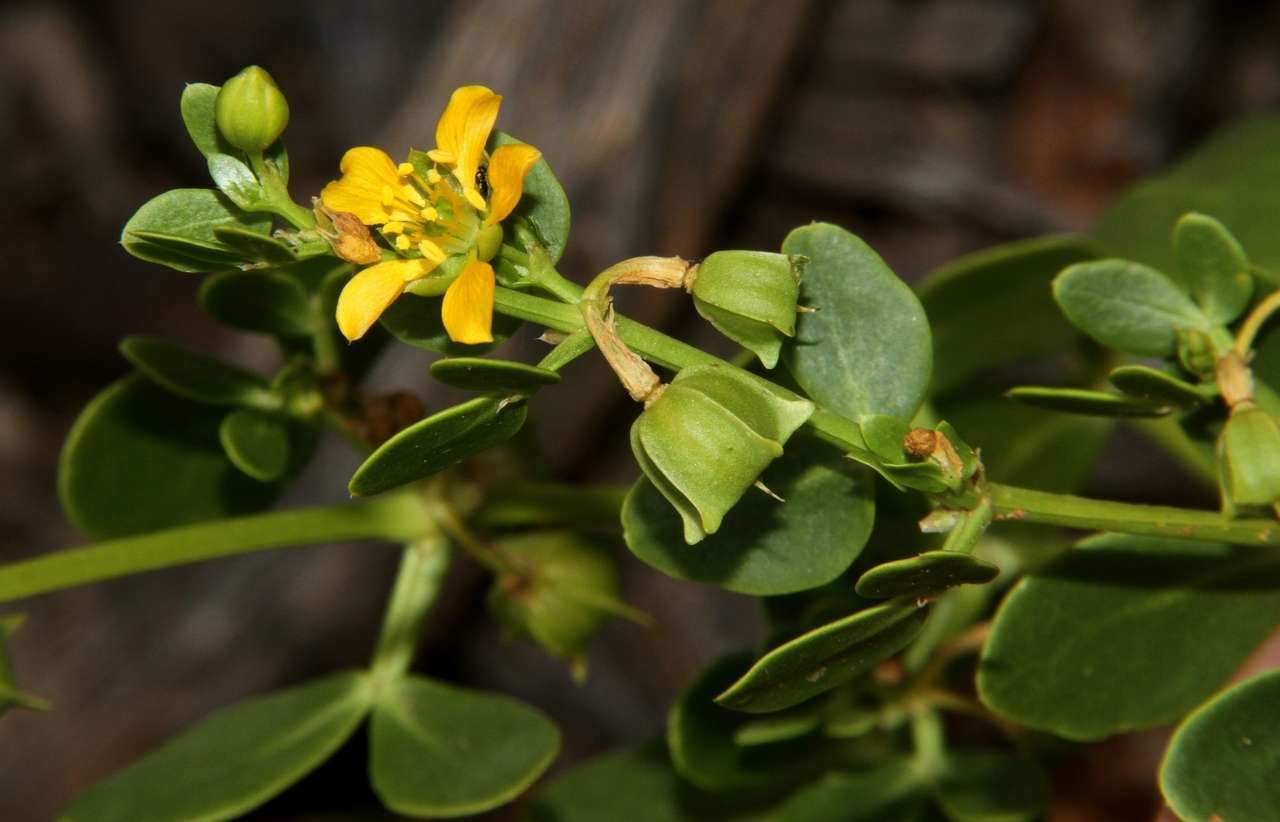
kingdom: Plantae
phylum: Tracheophyta
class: Magnoliopsida
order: Zygophyllales
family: Zygophyllaceae
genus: Roepera
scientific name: Roepera apiculata
